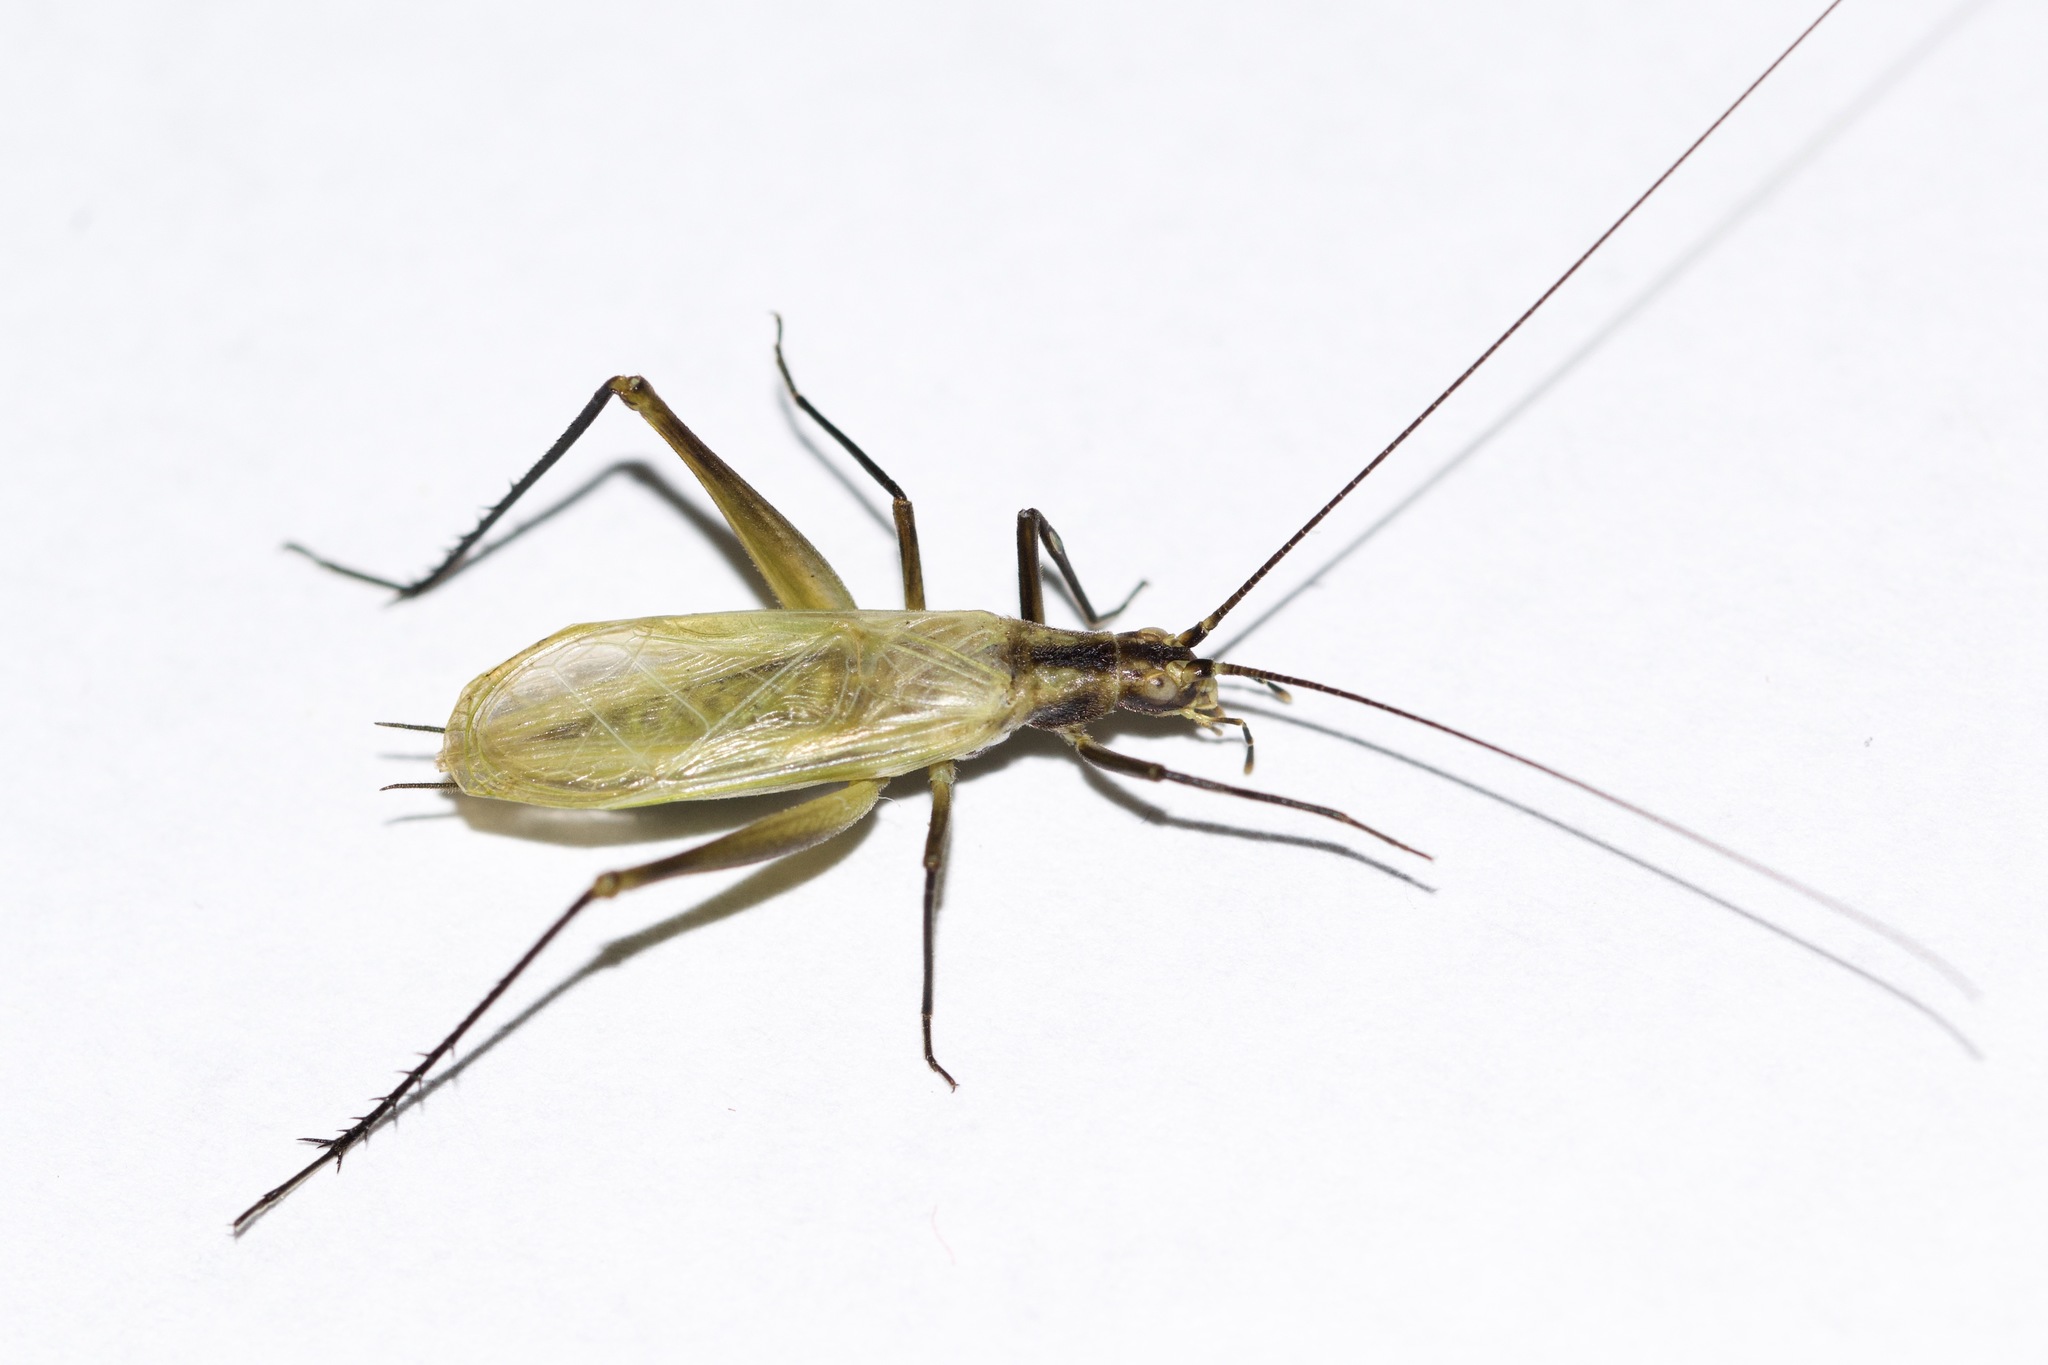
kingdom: Animalia
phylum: Arthropoda
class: Insecta
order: Orthoptera
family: Gryllidae
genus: Oecanthus
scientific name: Oecanthus nigricornis
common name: Black-horned tree cricket
